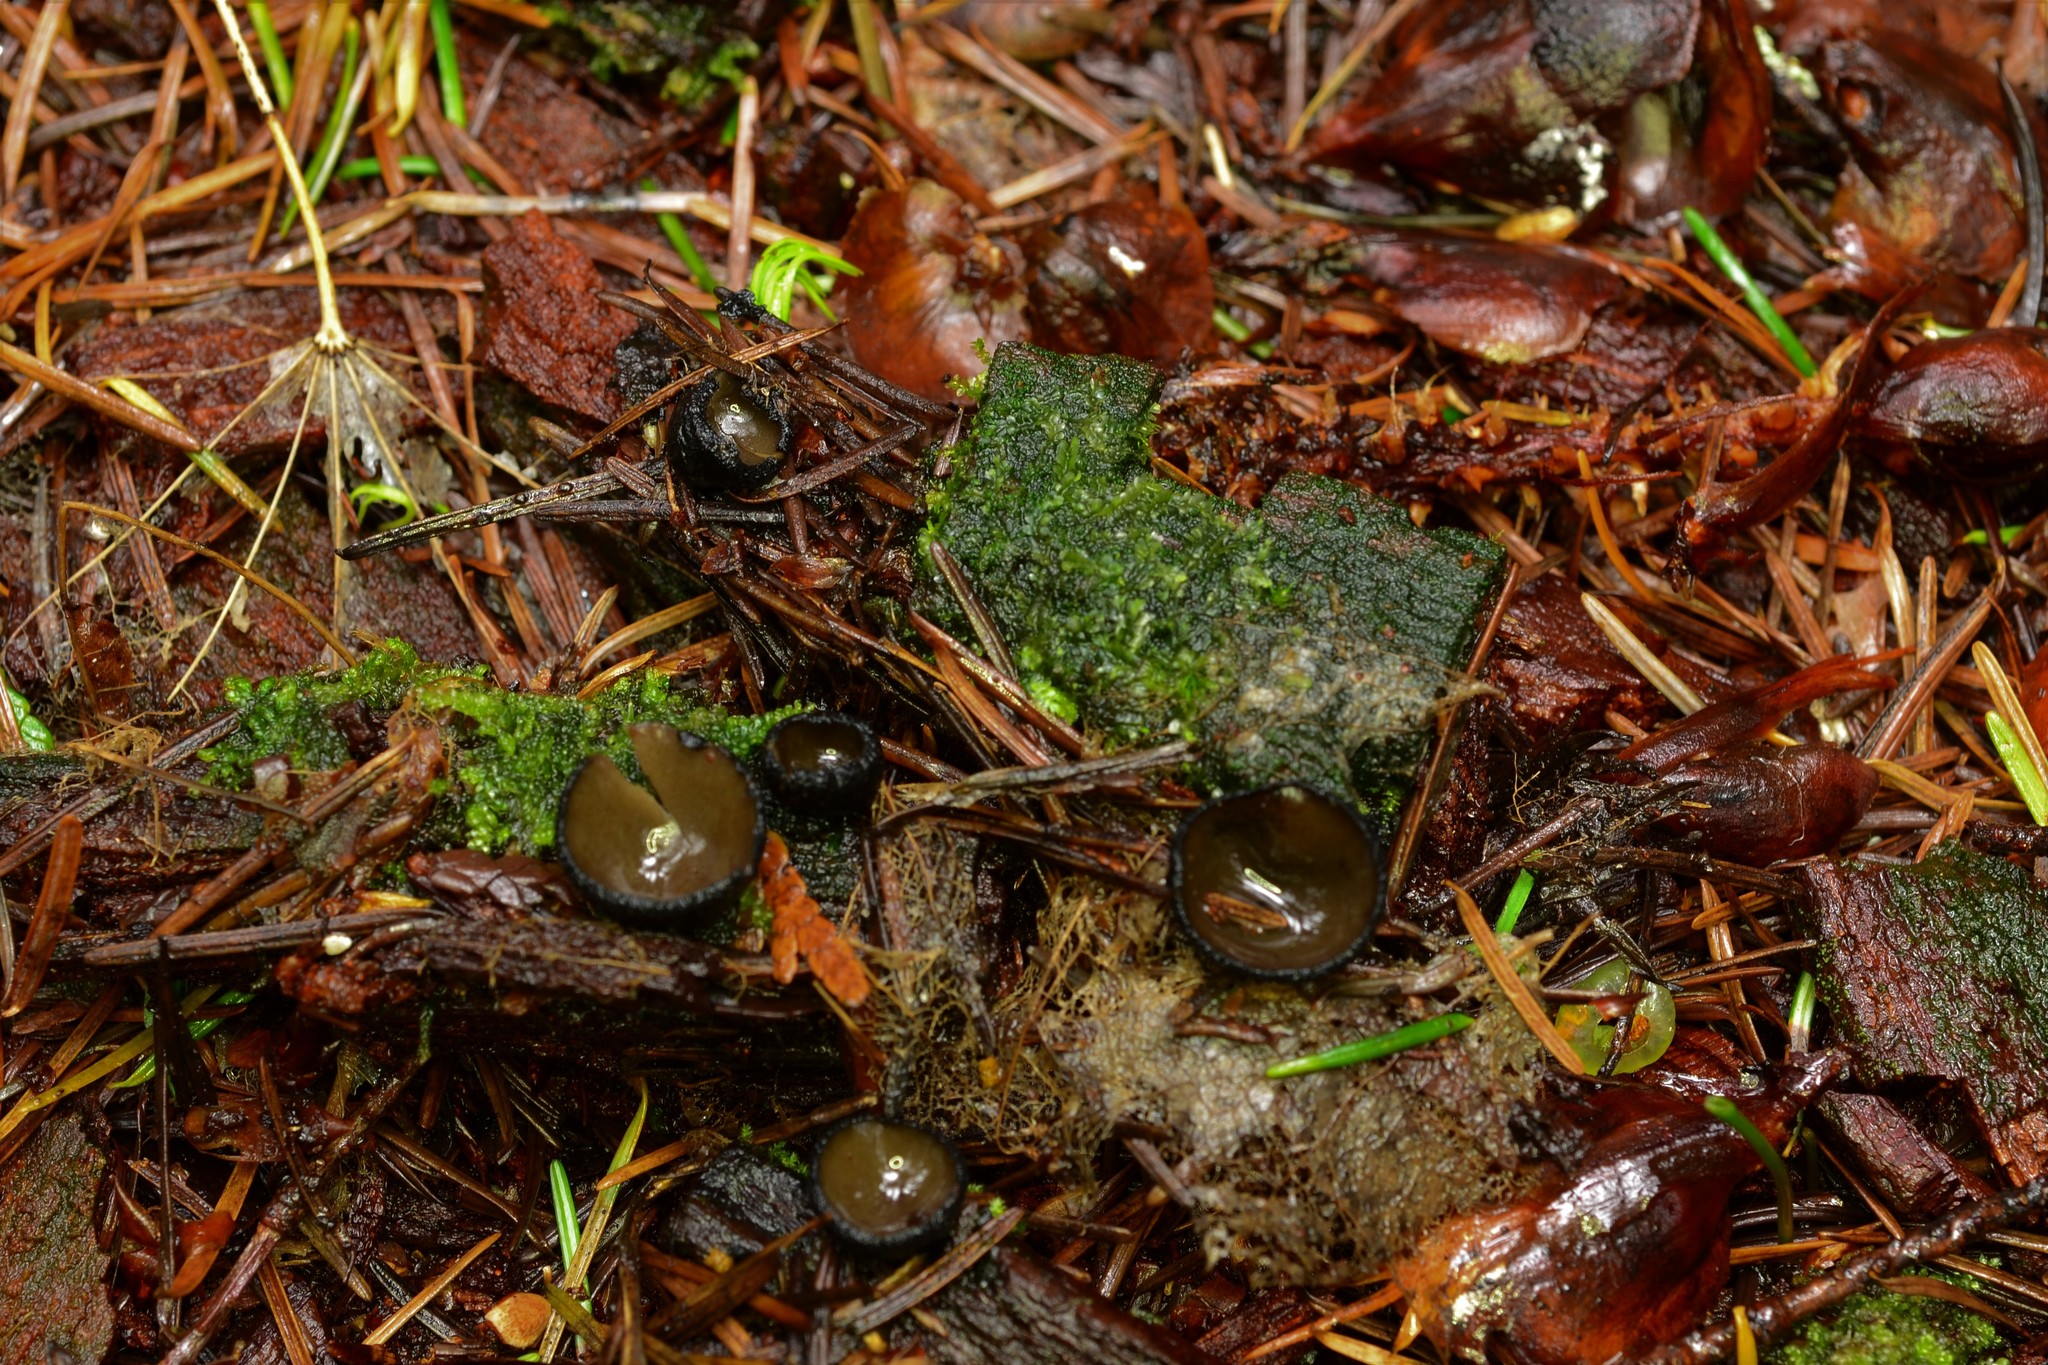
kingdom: Fungi
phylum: Ascomycota
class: Pezizomycetes
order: Pezizales
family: Sarcosomataceae
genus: Pseudoplectania
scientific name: Pseudoplectania melaena
